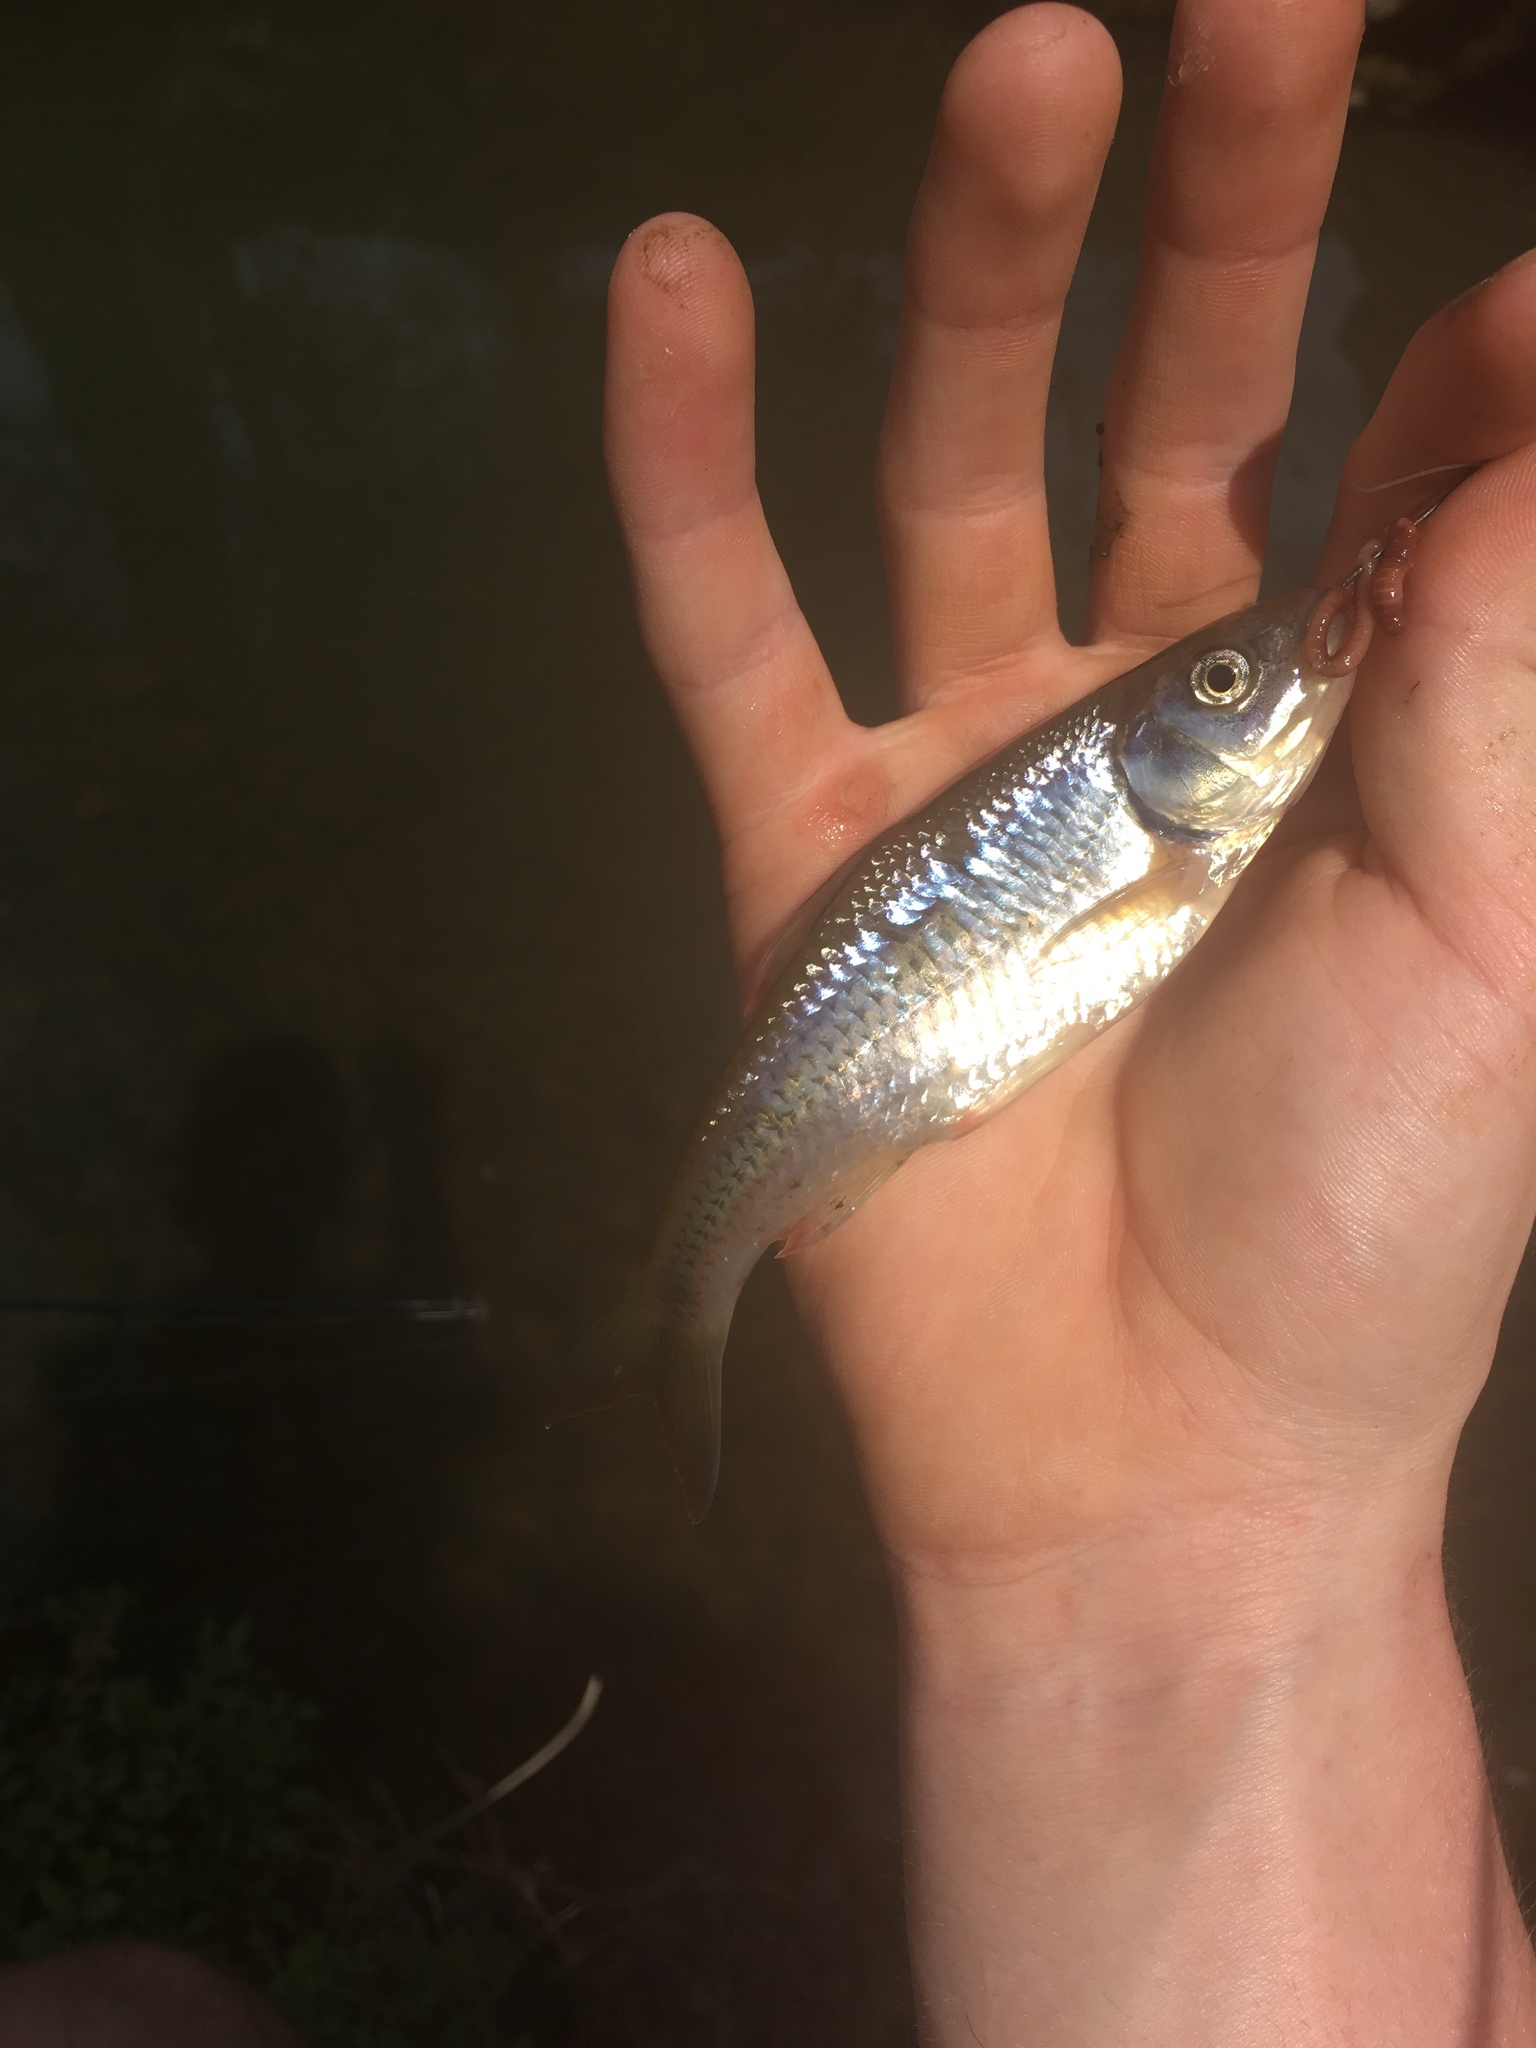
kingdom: Animalia
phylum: Chordata
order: Cypriniformes
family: Cyprinidae
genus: Luxilus
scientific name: Luxilus albeolus
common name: White shiner
